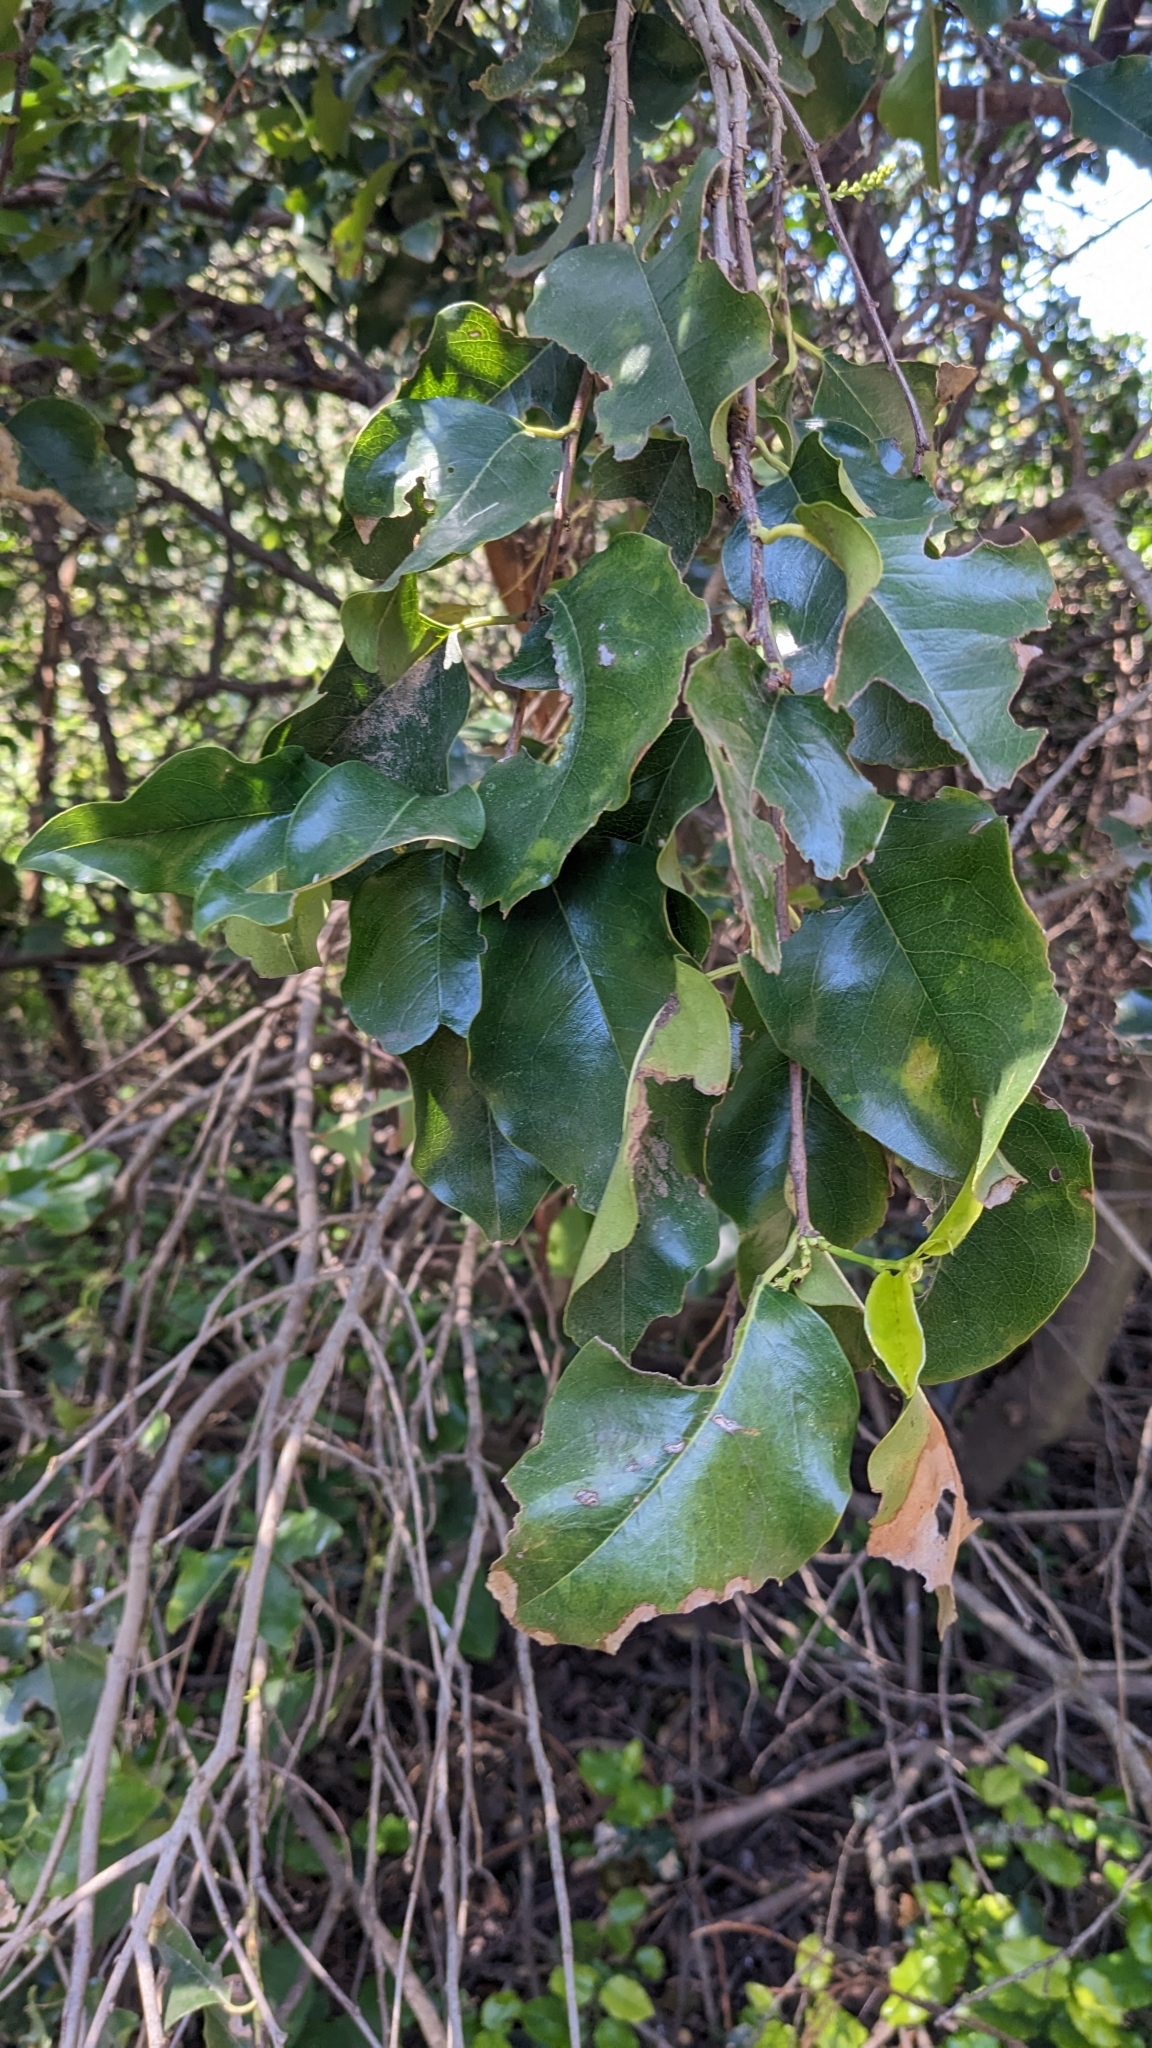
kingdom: Plantae
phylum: Tracheophyta
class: Magnoliopsida
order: Rosales
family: Rosaceae
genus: Prunus
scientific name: Prunus ilicifolia
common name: Hollyleaf cherry
